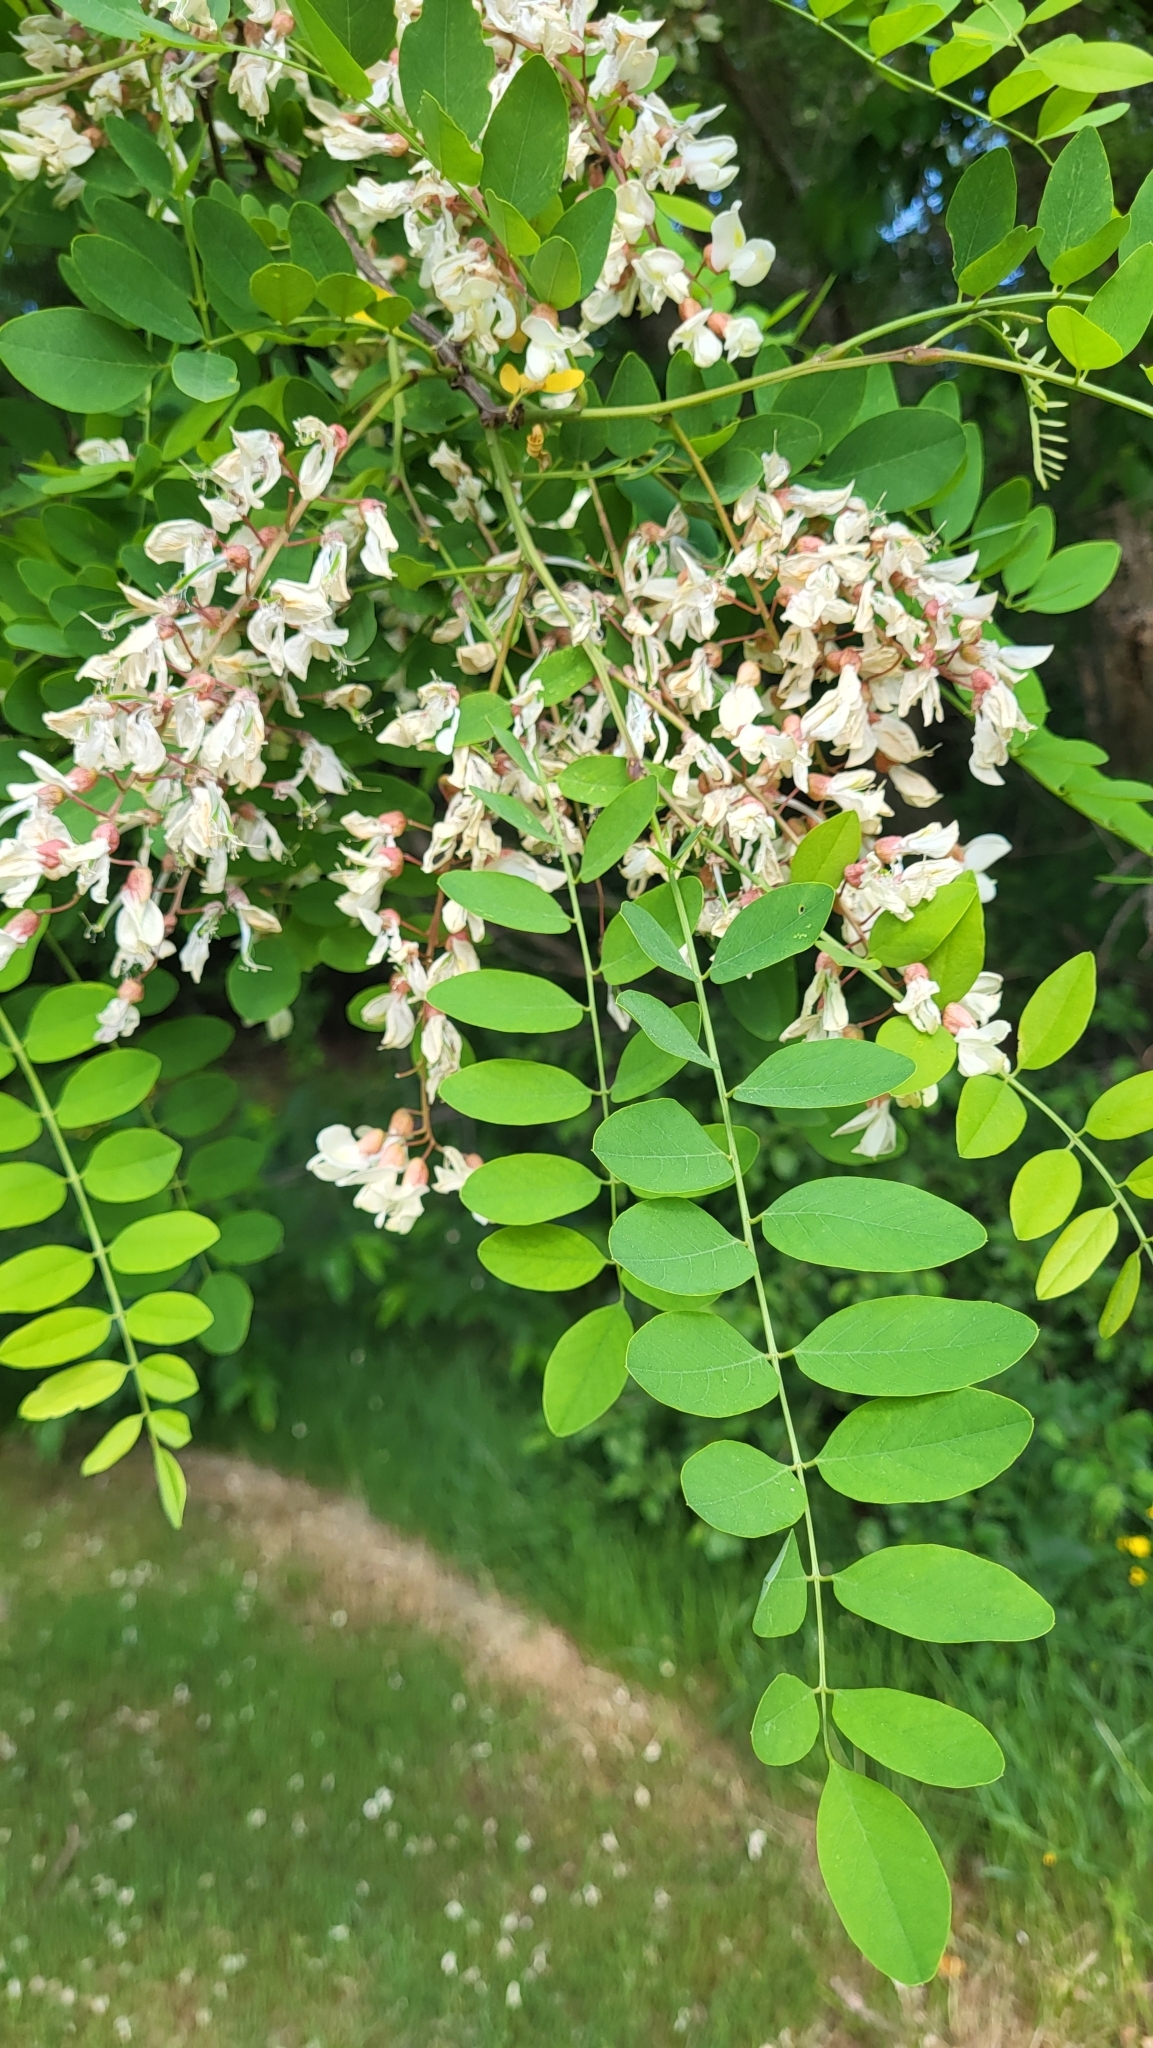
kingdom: Plantae
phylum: Tracheophyta
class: Magnoliopsida
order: Fabales
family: Fabaceae
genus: Robinia
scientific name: Robinia pseudoacacia
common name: Black locust
